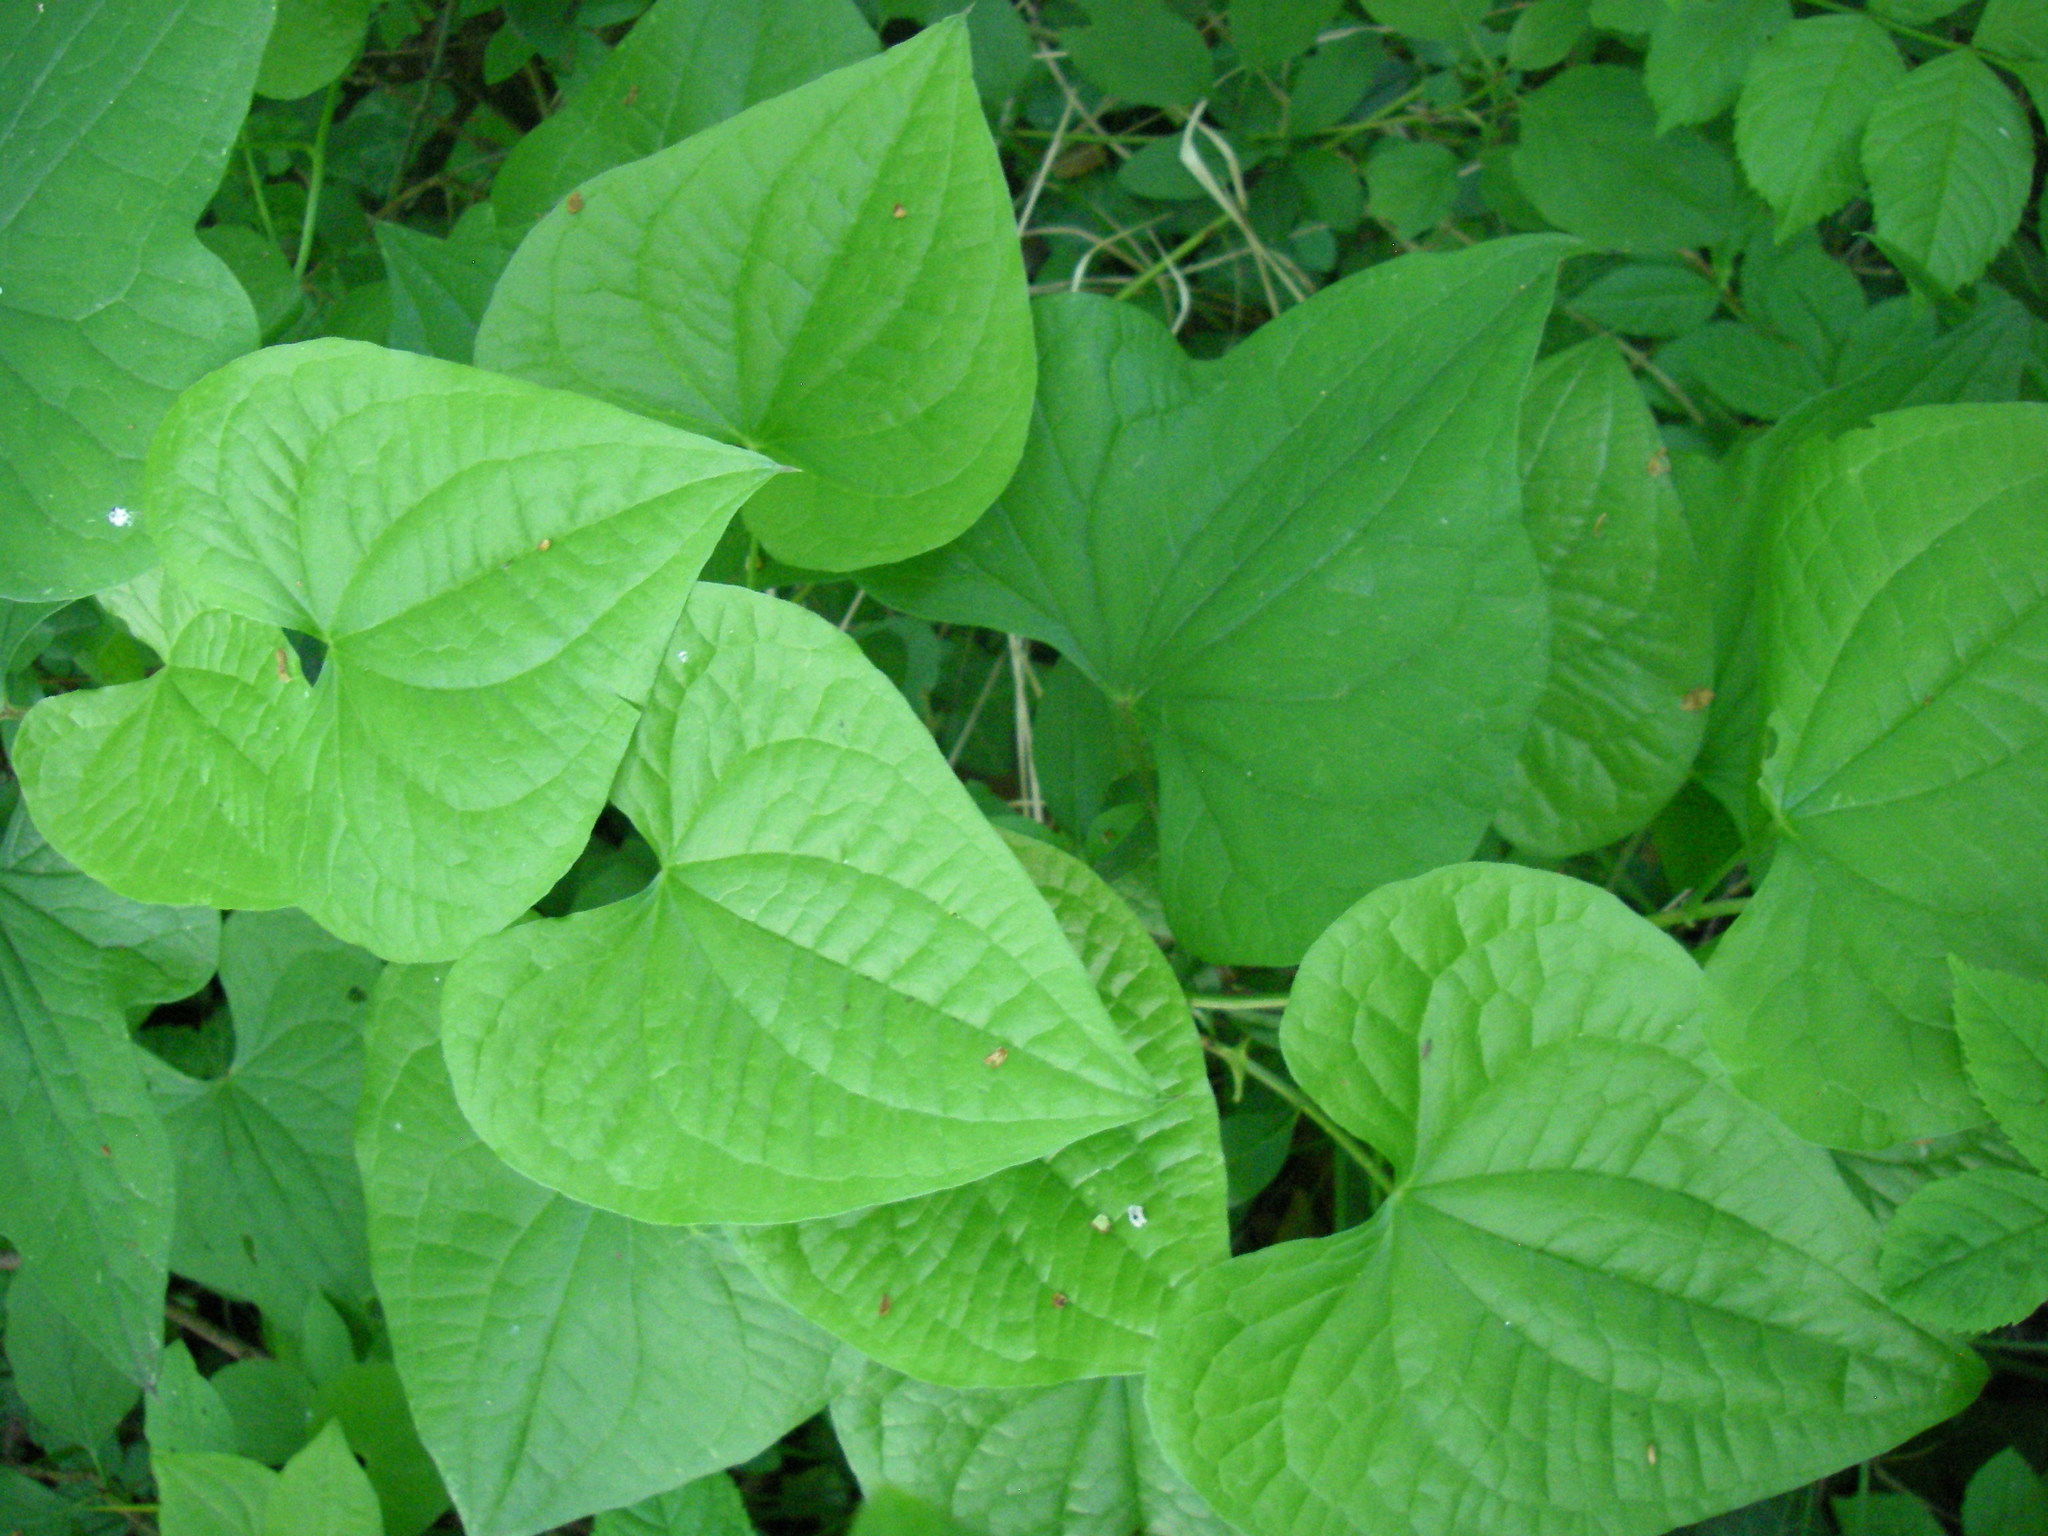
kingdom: Plantae
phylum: Tracheophyta
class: Liliopsida
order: Dioscoreales
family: Dioscoreaceae
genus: Dioscorea
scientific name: Dioscorea communis
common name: Black-bindweed
